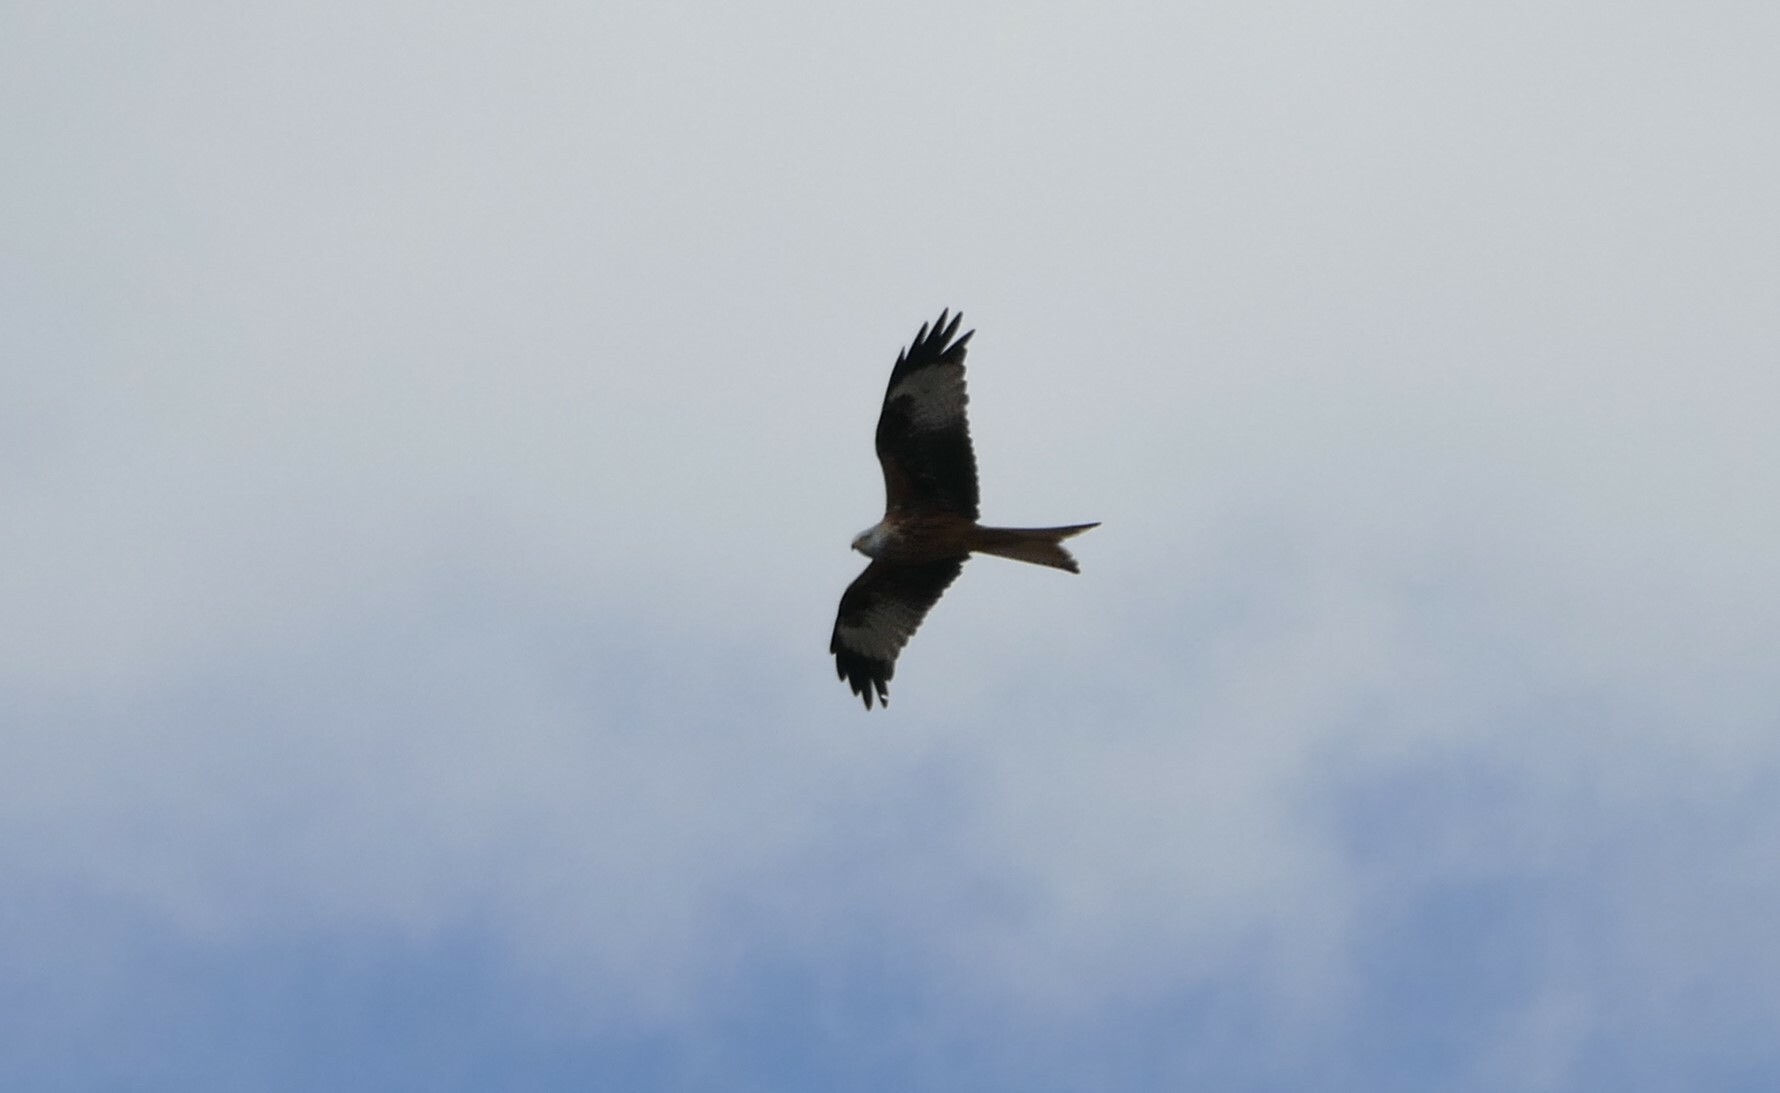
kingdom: Animalia
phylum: Chordata
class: Aves
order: Accipitriformes
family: Accipitridae
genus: Milvus
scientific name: Milvus milvus
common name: Red kite
